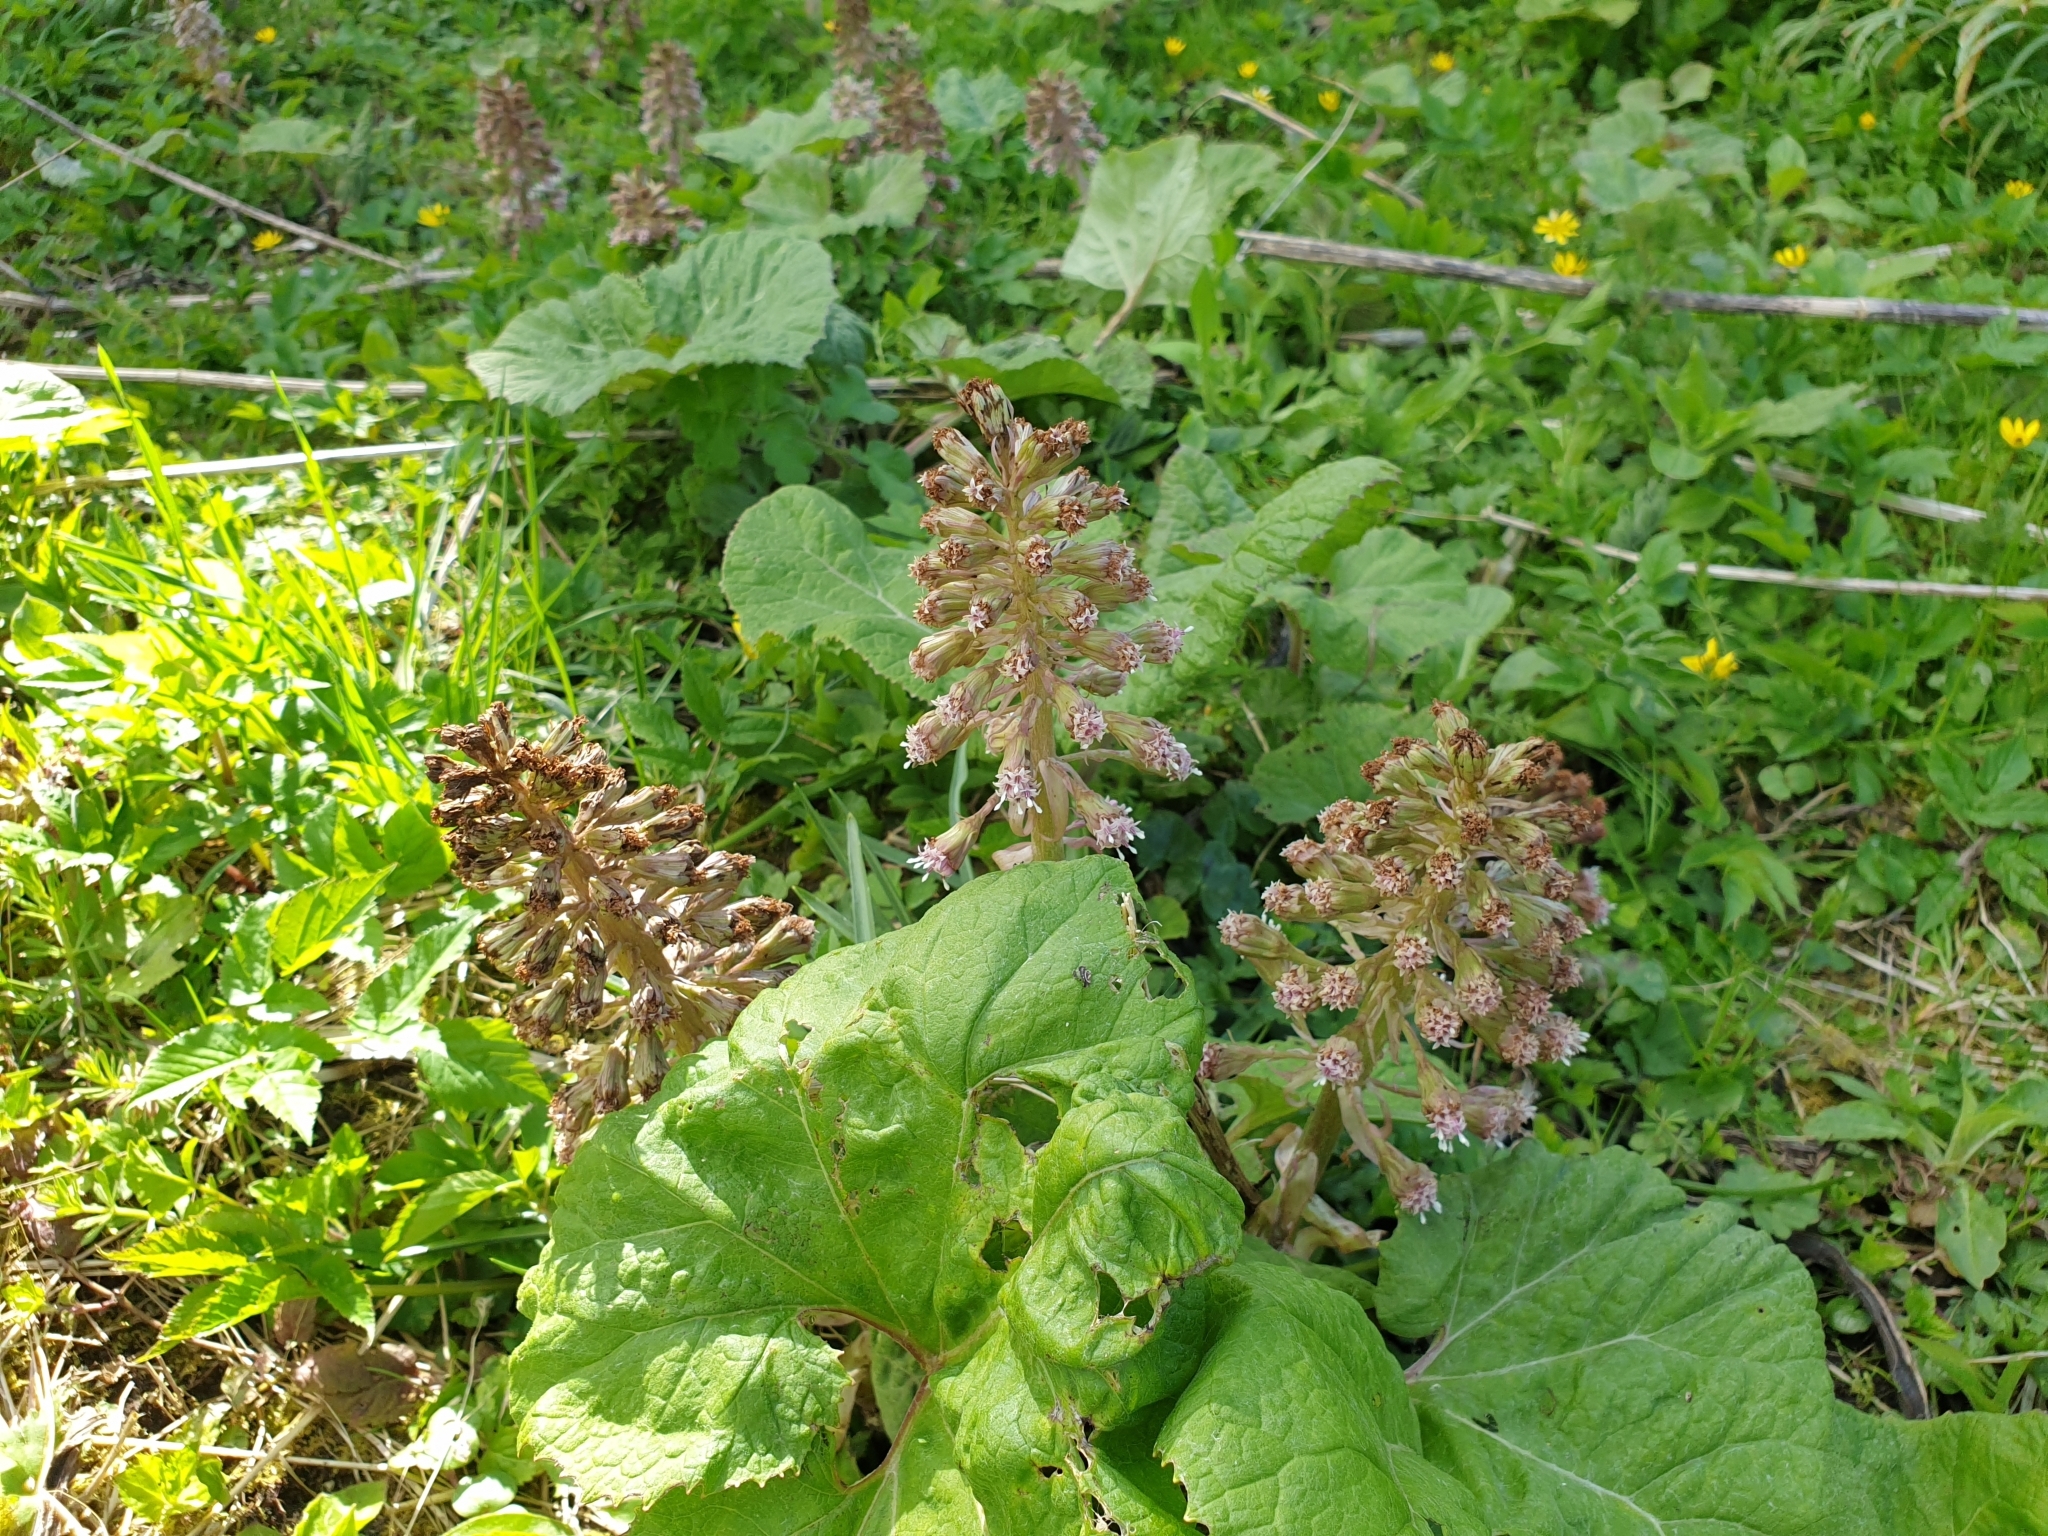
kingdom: Plantae
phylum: Tracheophyta
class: Magnoliopsida
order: Asterales
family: Asteraceae
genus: Petasites
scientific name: Petasites hybridus
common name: Butterbur
